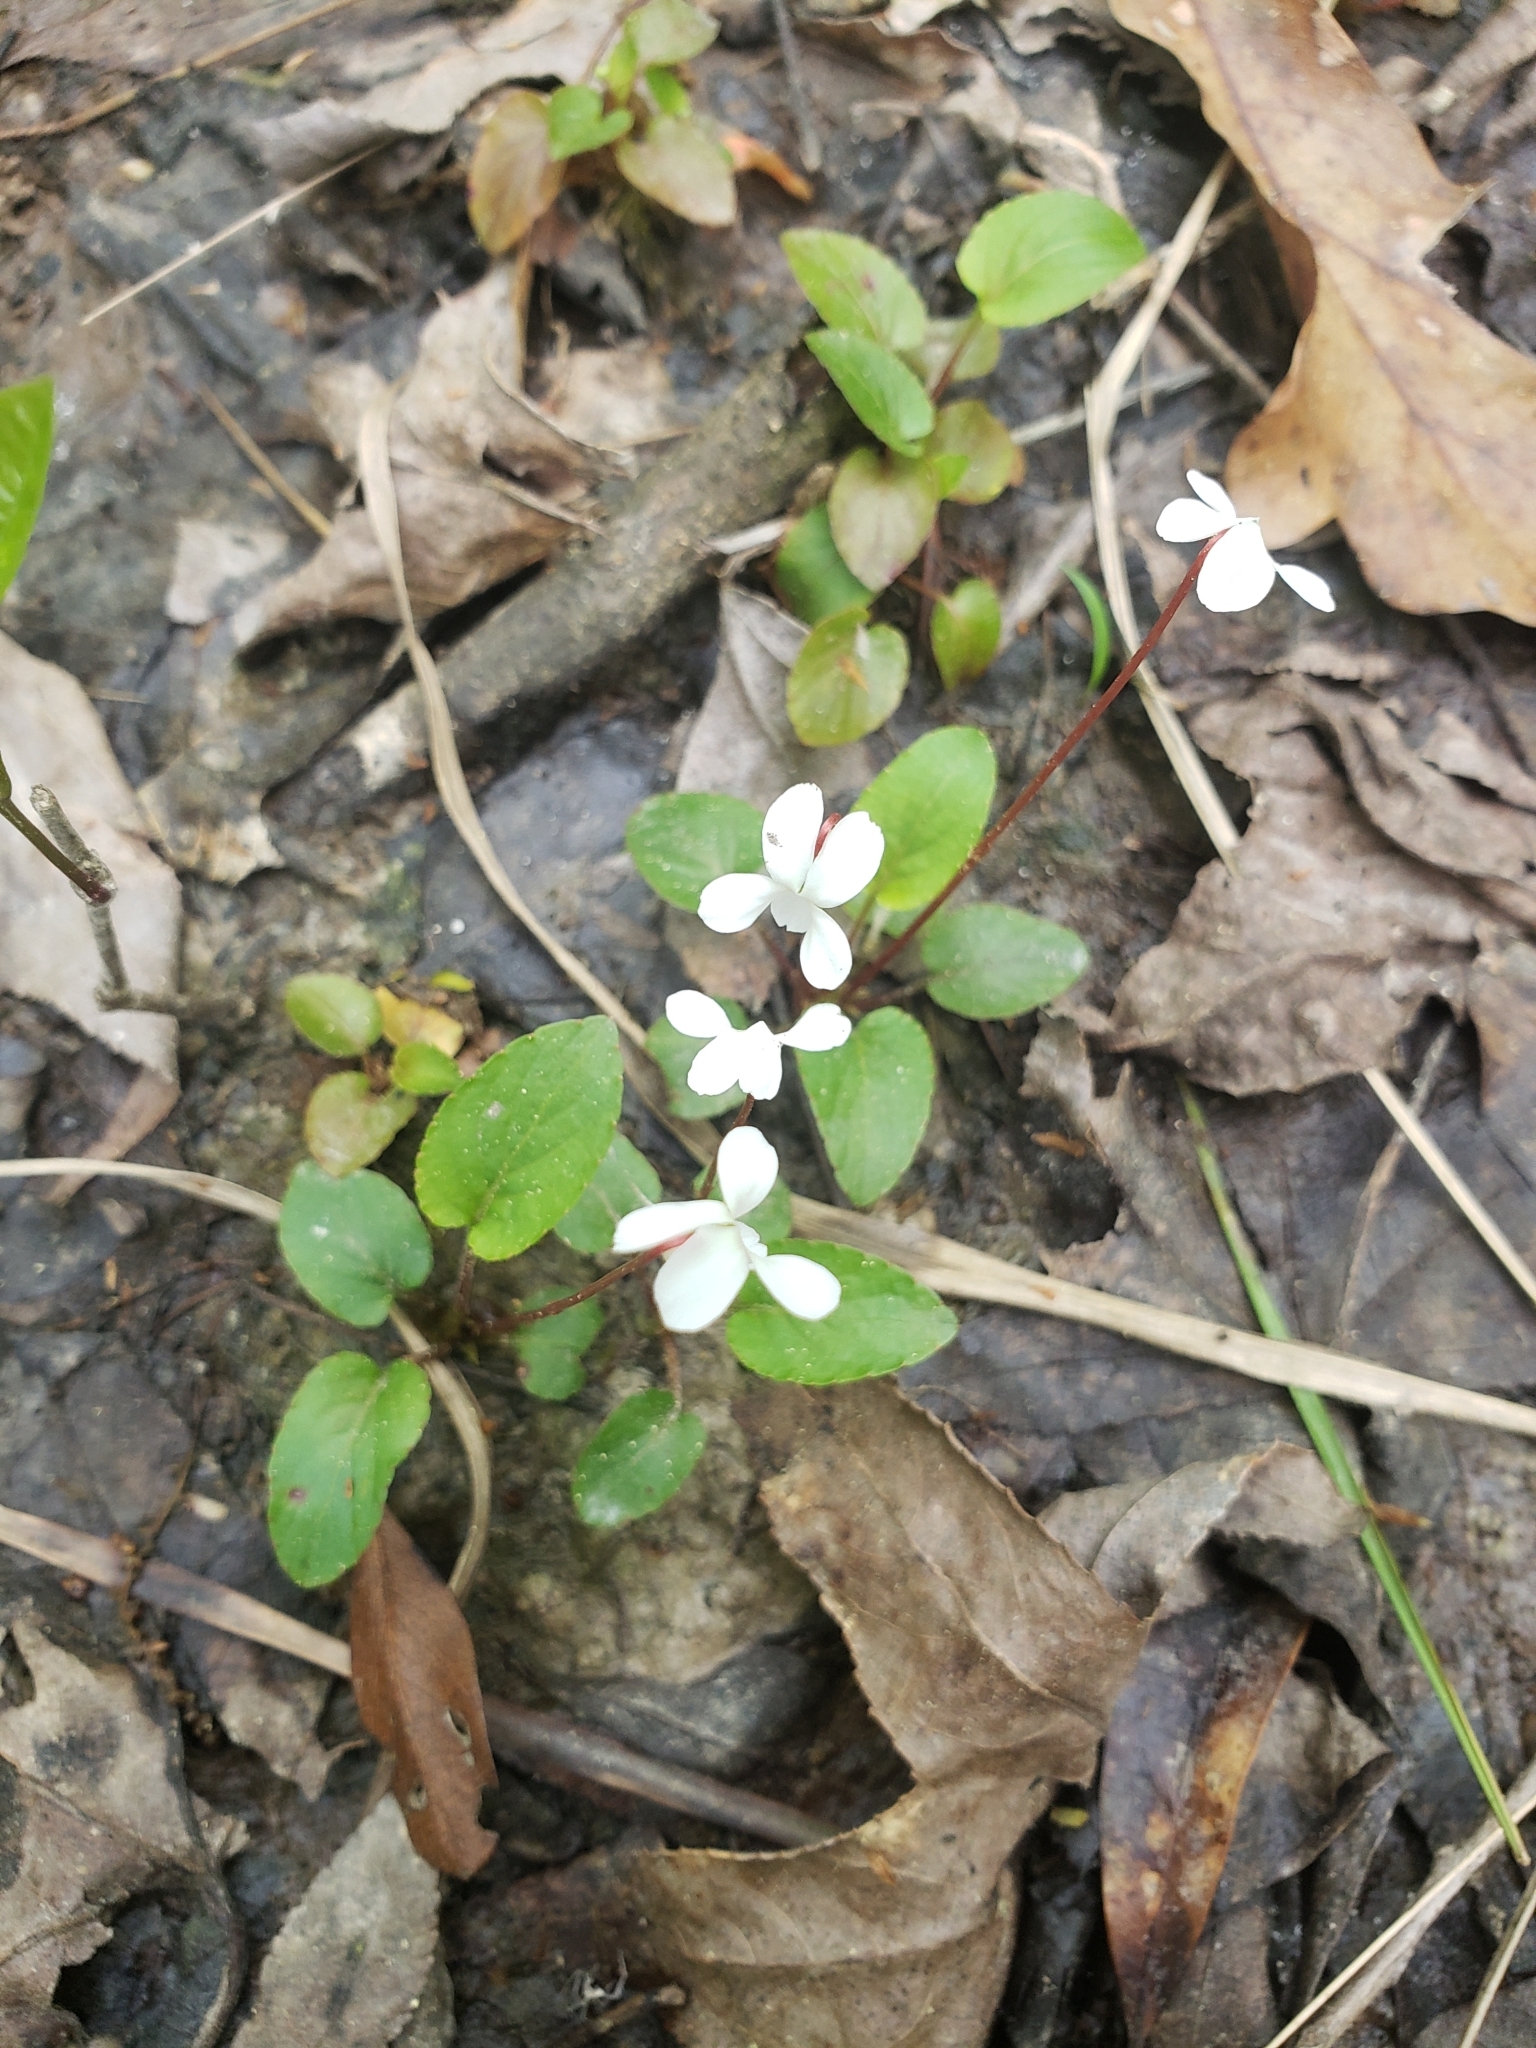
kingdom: Plantae
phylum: Tracheophyta
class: Magnoliopsida
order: Malpighiales
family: Violaceae
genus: Viola
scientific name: Viola primulifolia
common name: Primrose-leaf violet
